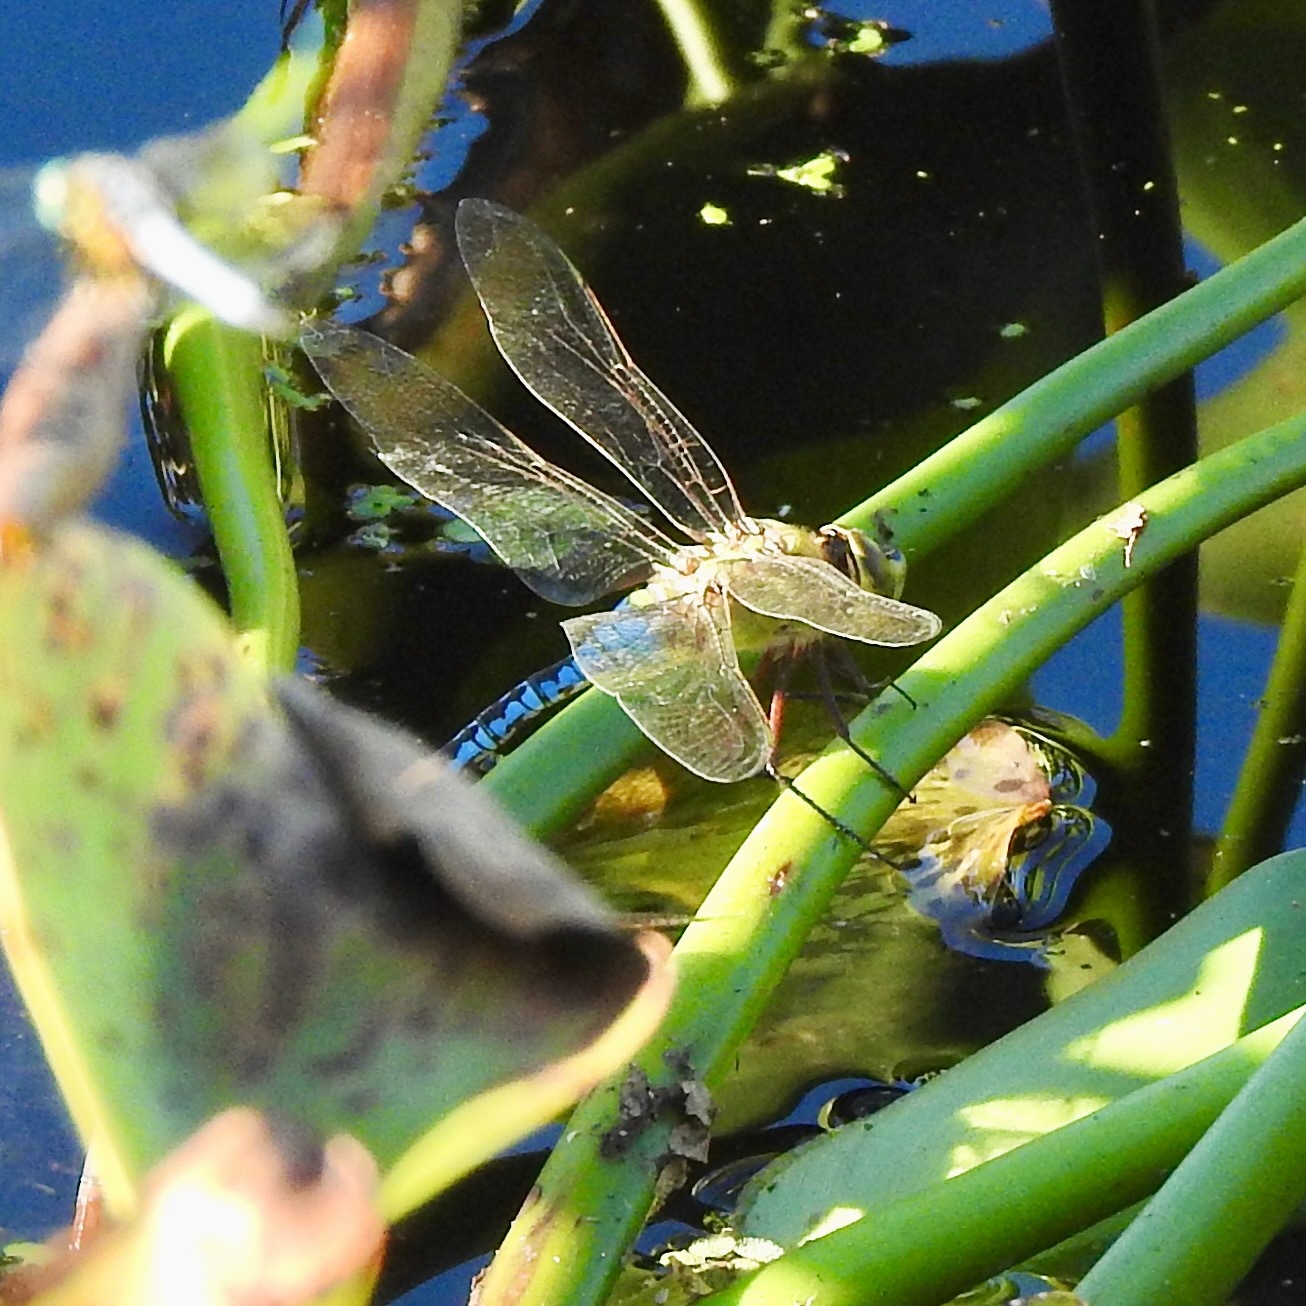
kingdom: Animalia
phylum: Arthropoda
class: Insecta
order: Odonata
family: Aeshnidae
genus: Anax
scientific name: Anax junius
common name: Common green darner
